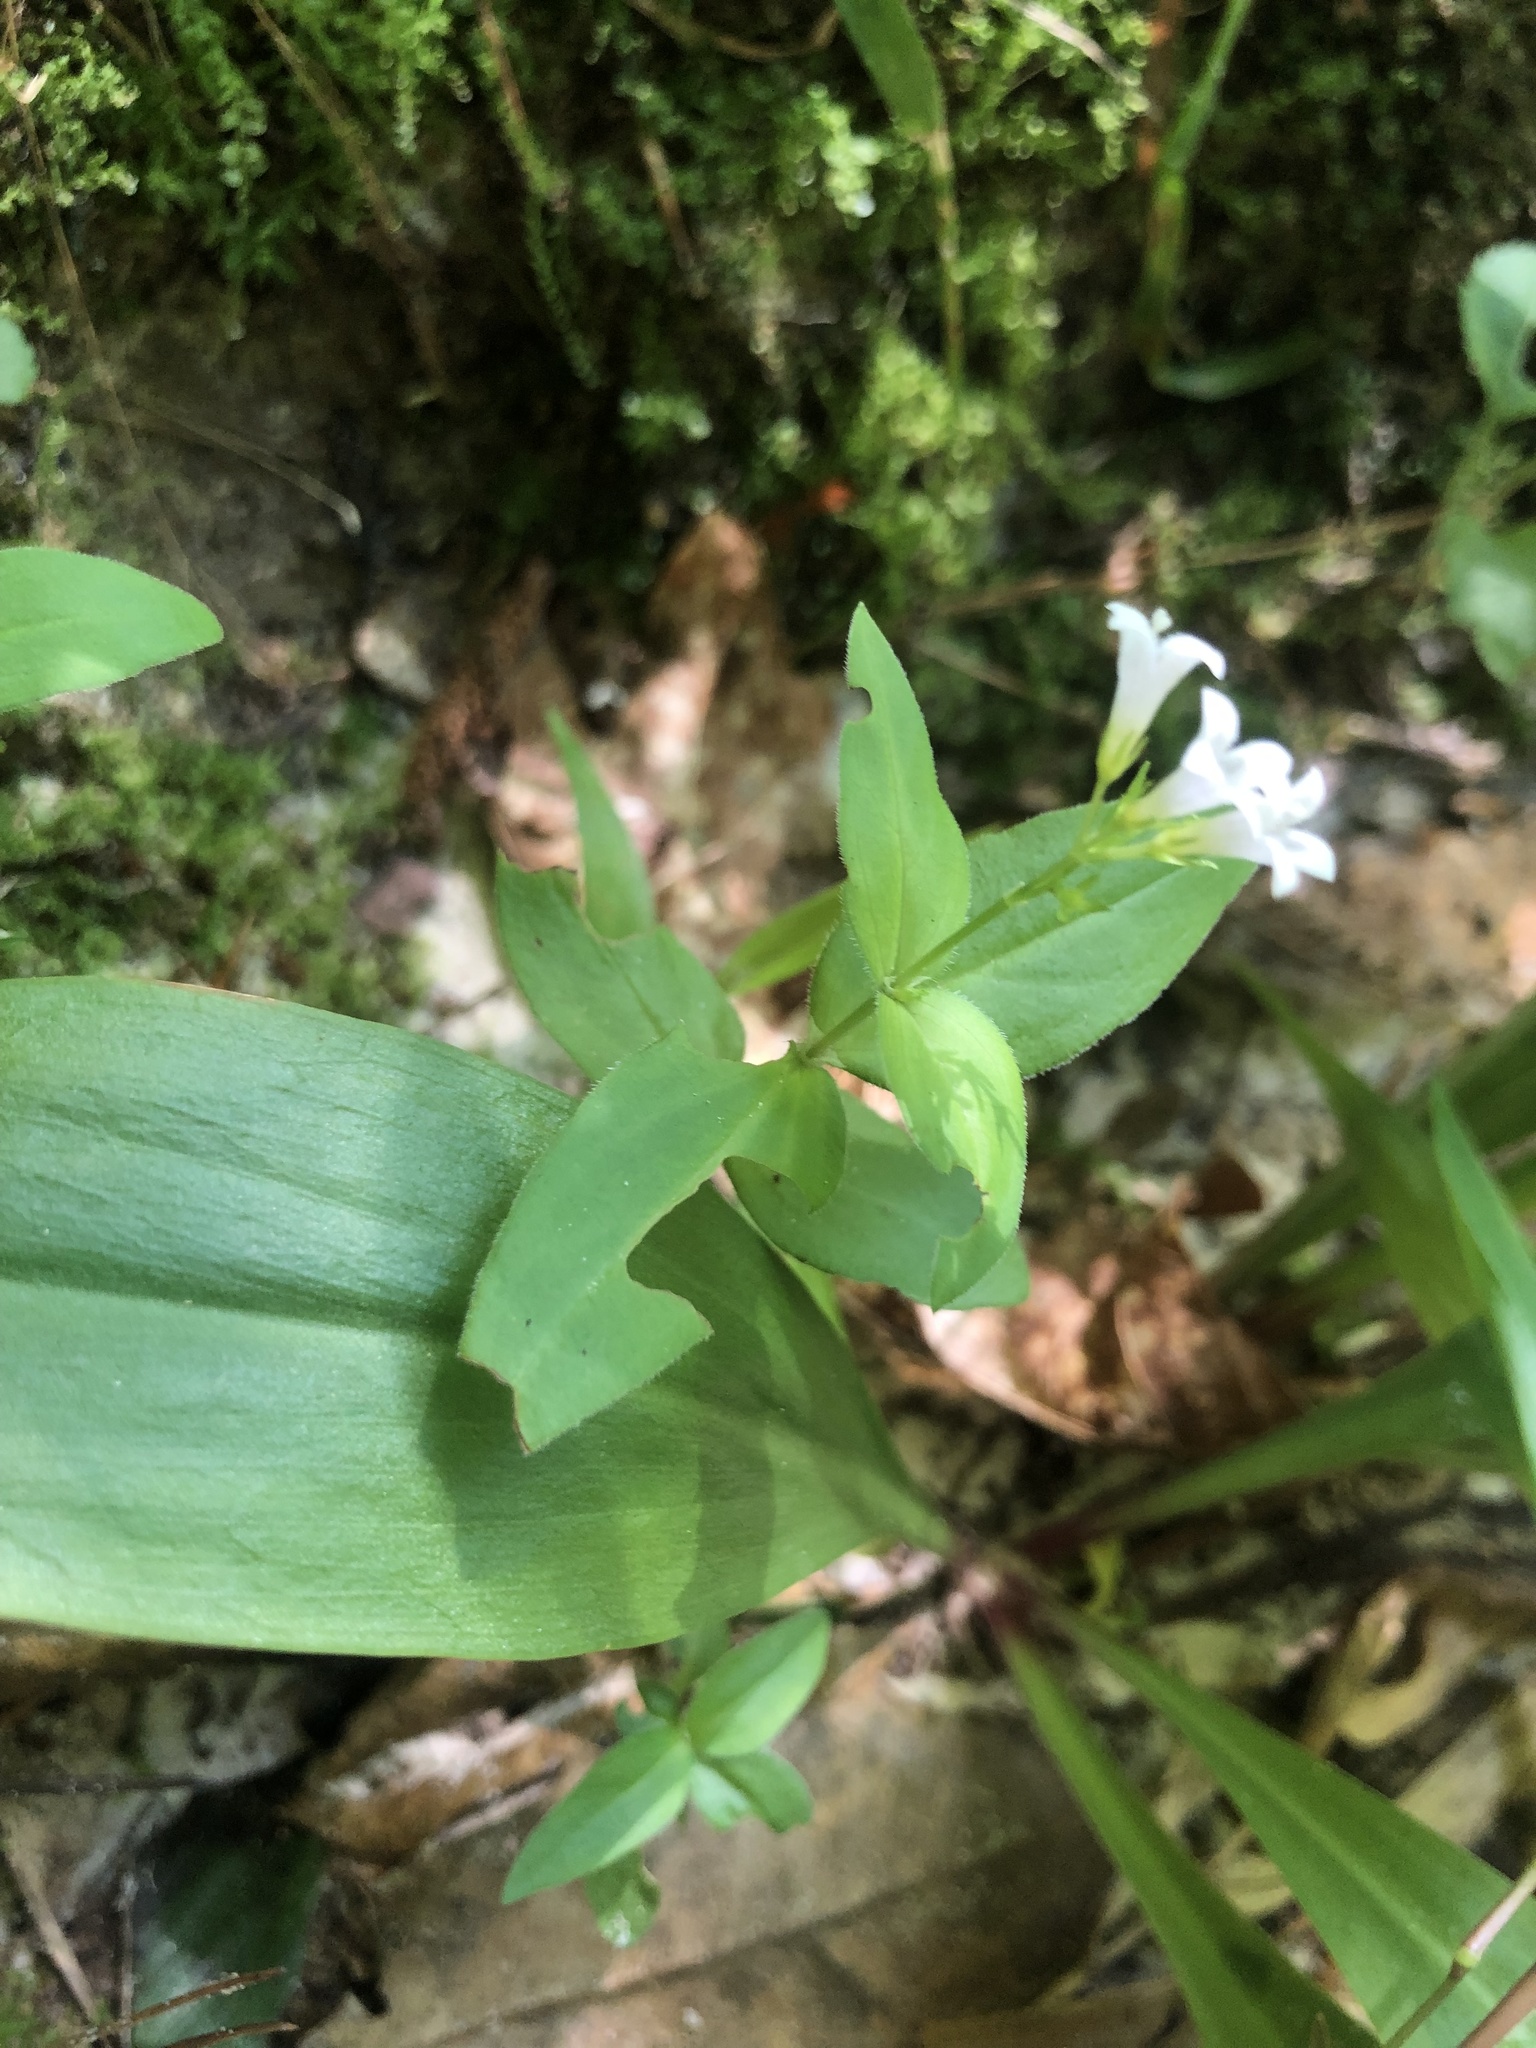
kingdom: Plantae
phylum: Tracheophyta
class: Magnoliopsida
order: Gentianales
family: Rubiaceae
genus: Houstonia
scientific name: Houstonia purpurea
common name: Summer bluet
